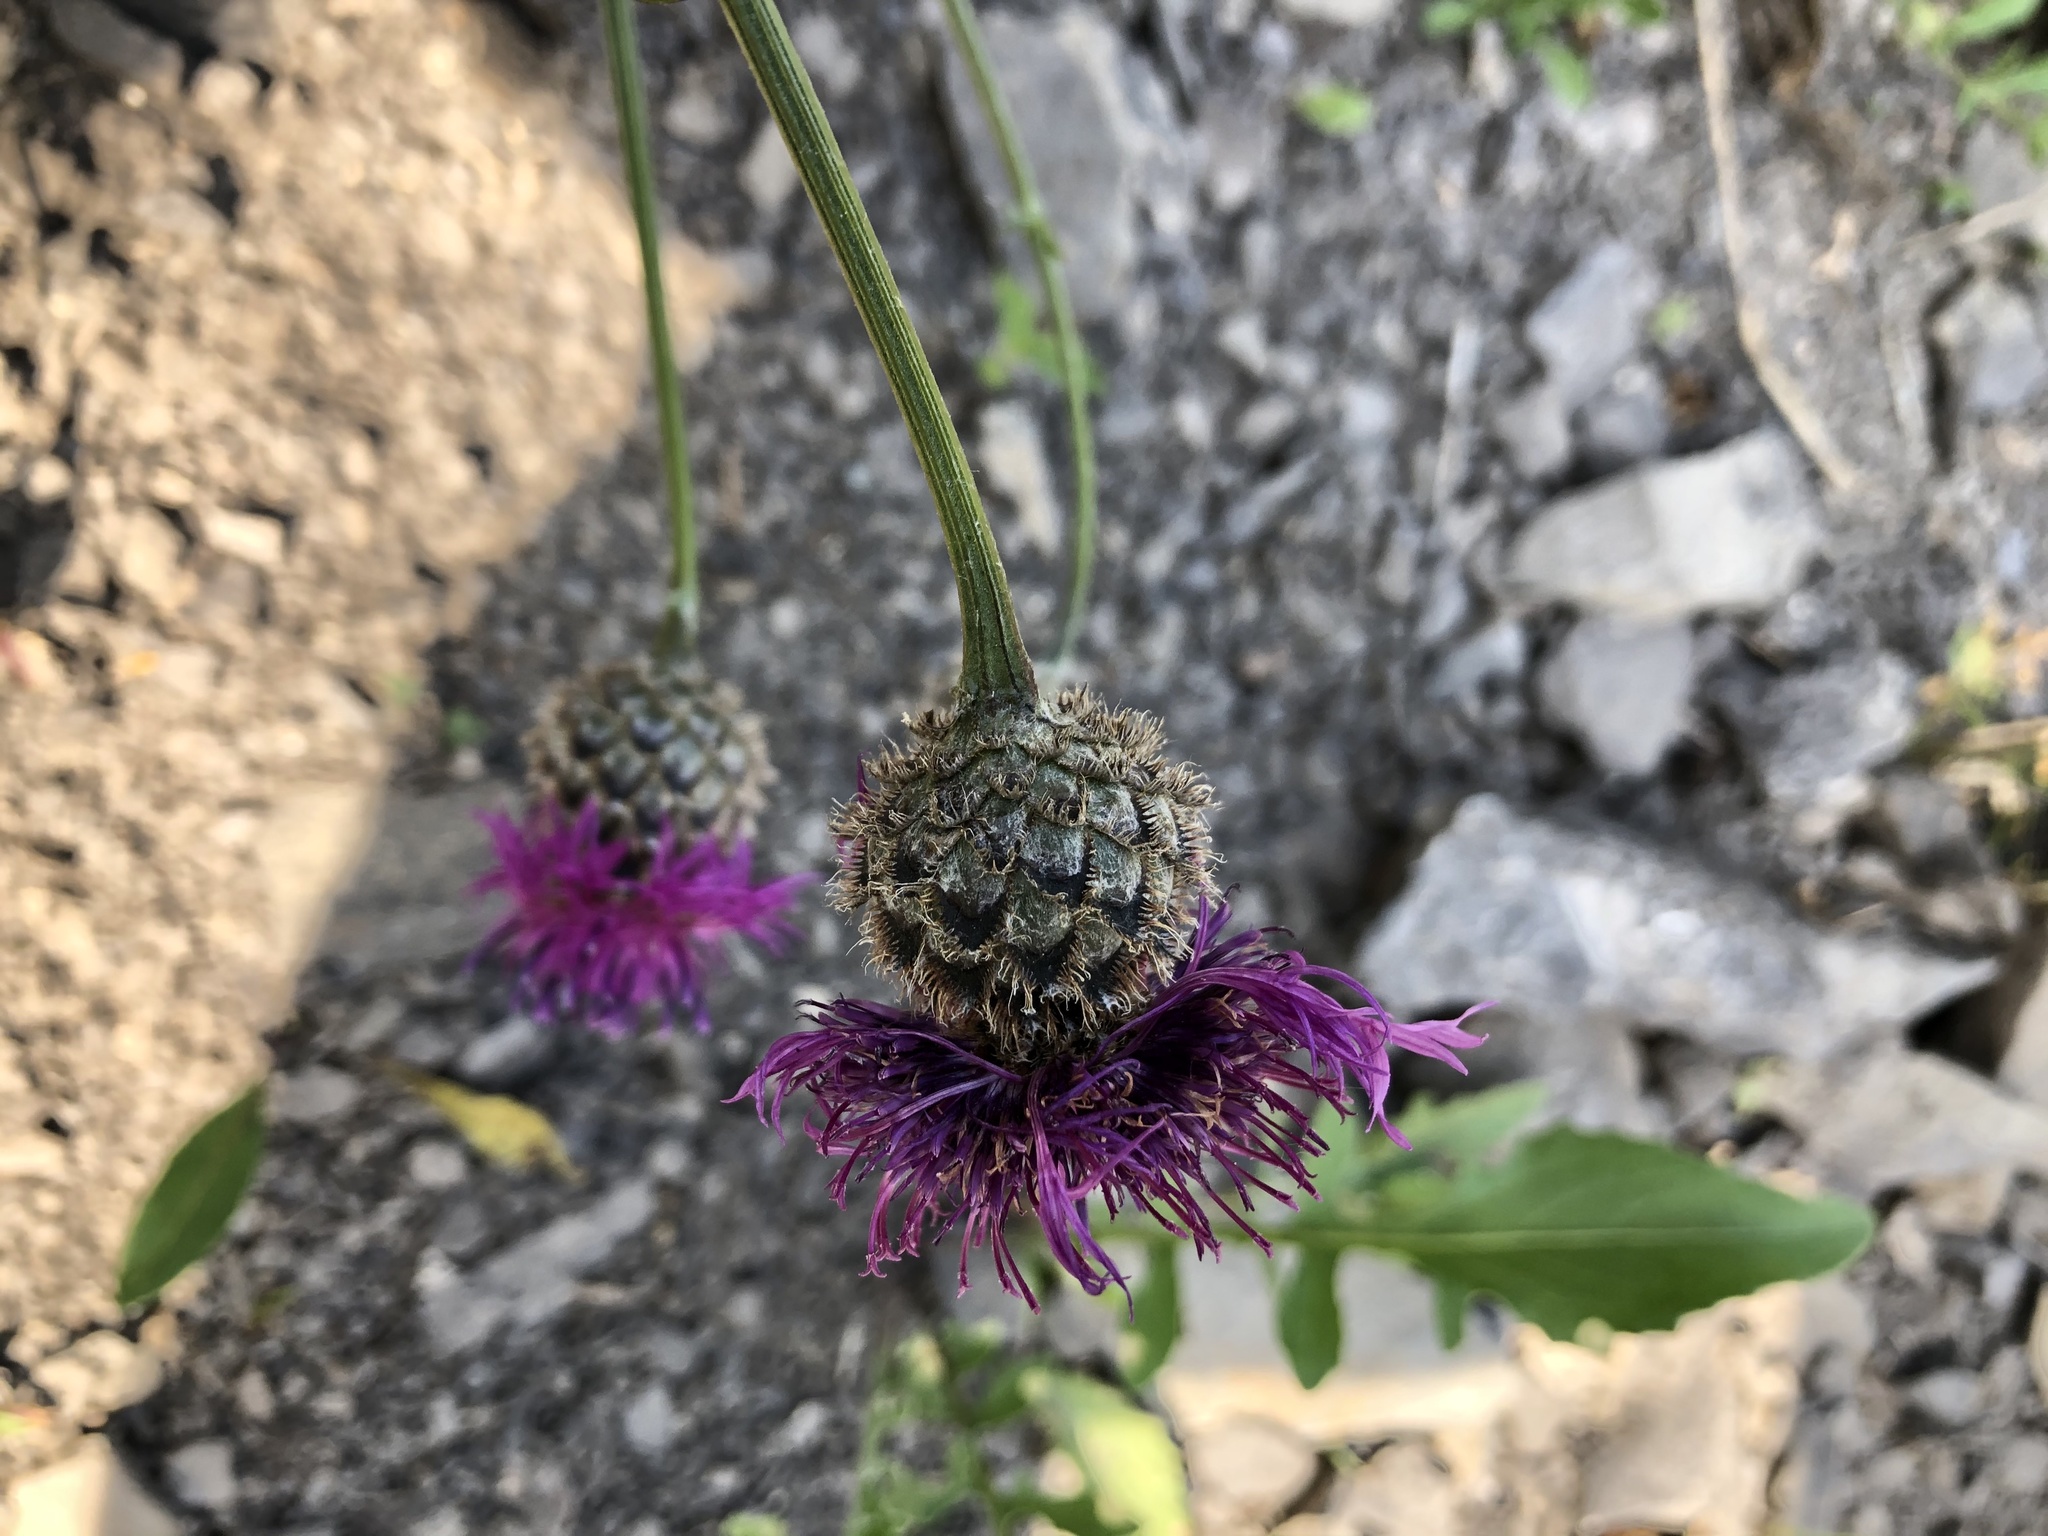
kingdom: Plantae
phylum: Tracheophyta
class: Magnoliopsida
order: Asterales
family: Asteraceae
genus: Centaurea
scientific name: Centaurea scabiosa
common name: Greater knapweed
